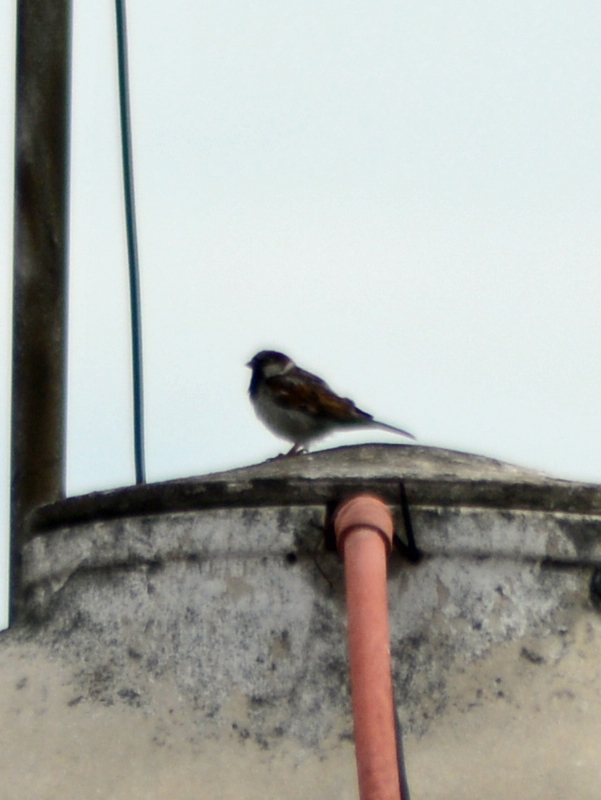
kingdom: Animalia
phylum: Chordata
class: Aves
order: Passeriformes
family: Passeridae
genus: Passer
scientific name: Passer domesticus
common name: House sparrow
